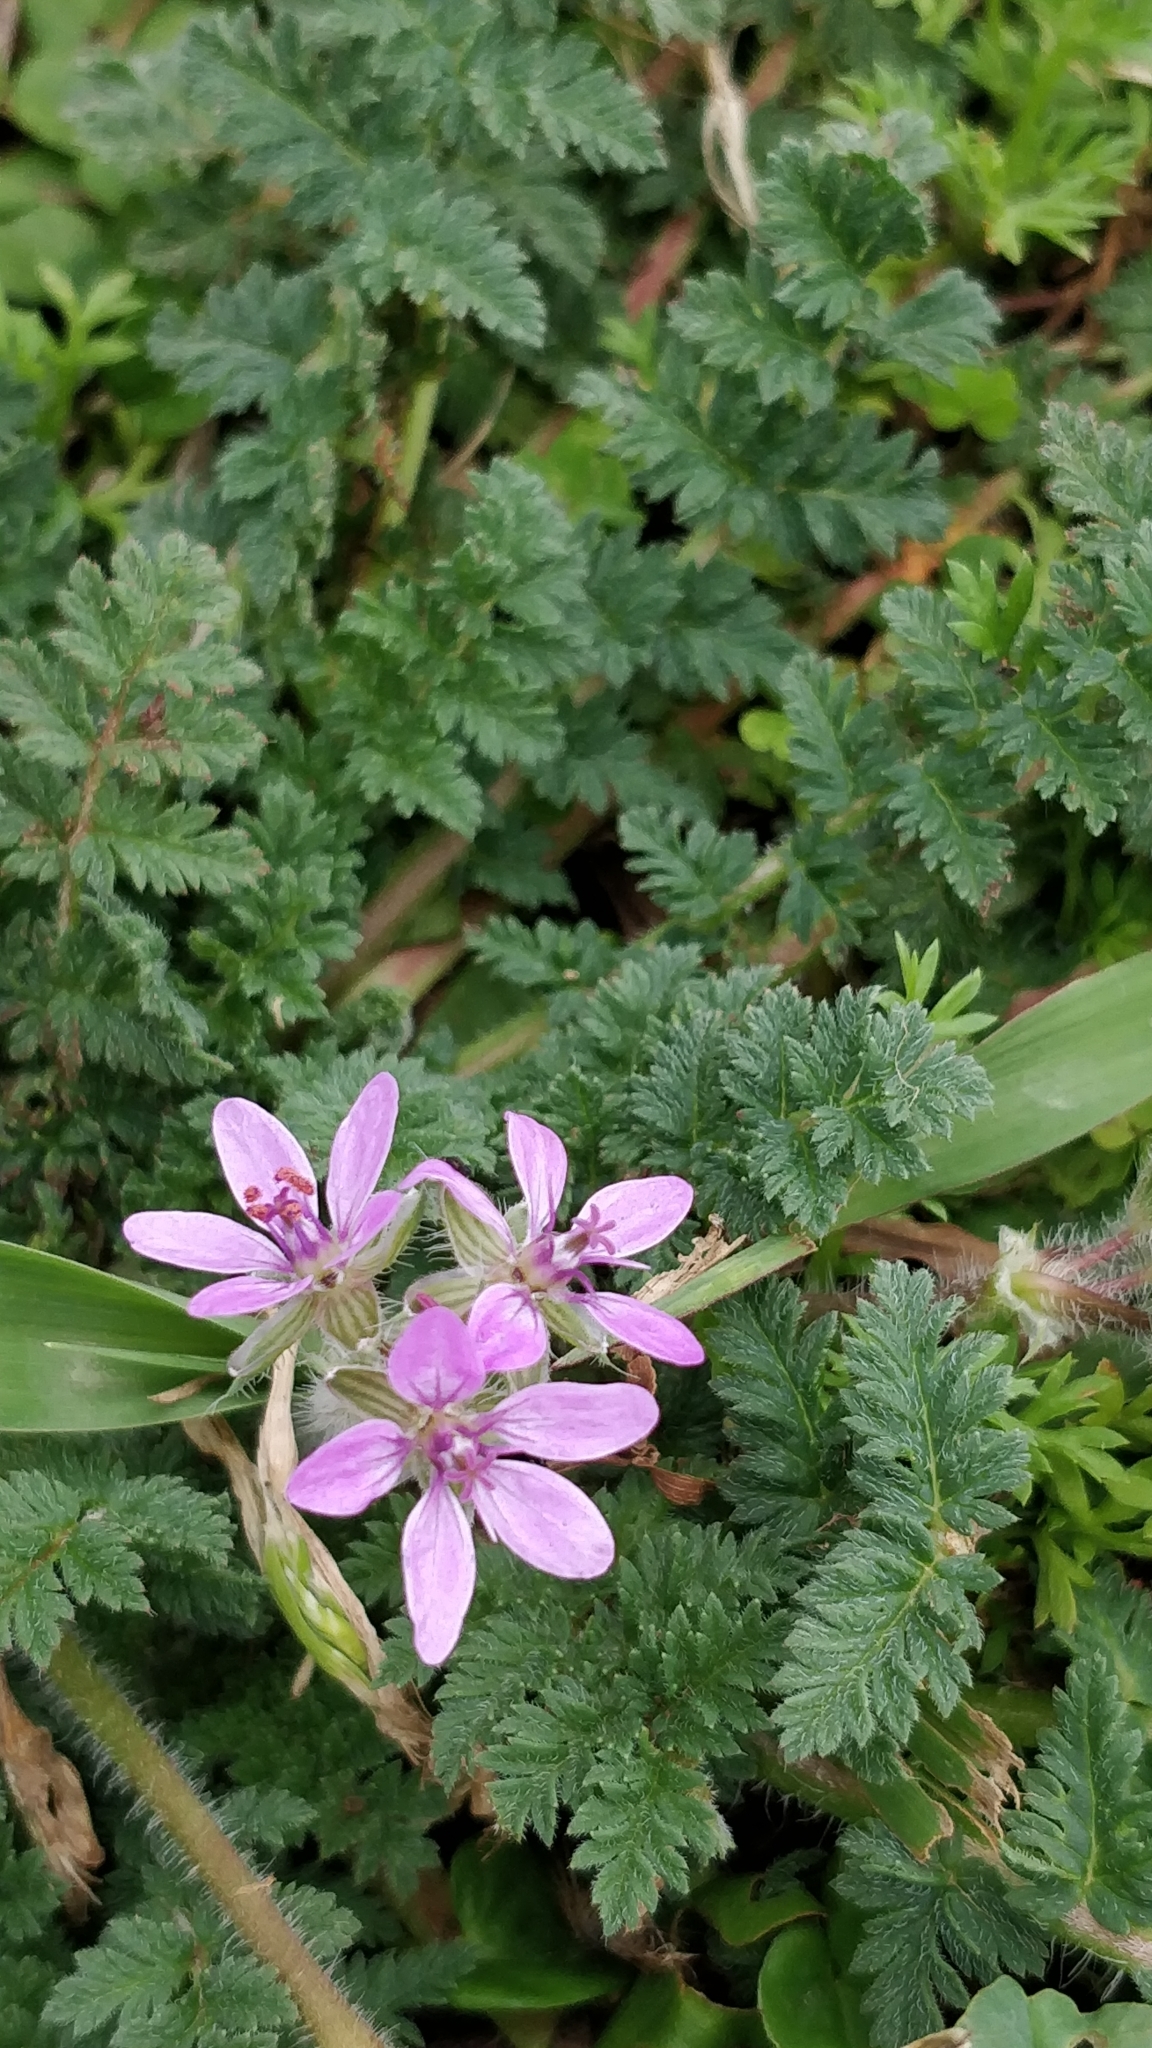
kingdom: Plantae
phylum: Tracheophyta
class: Magnoliopsida
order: Geraniales
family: Geraniaceae
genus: Erodium
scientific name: Erodium cicutarium
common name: Common stork's-bill
